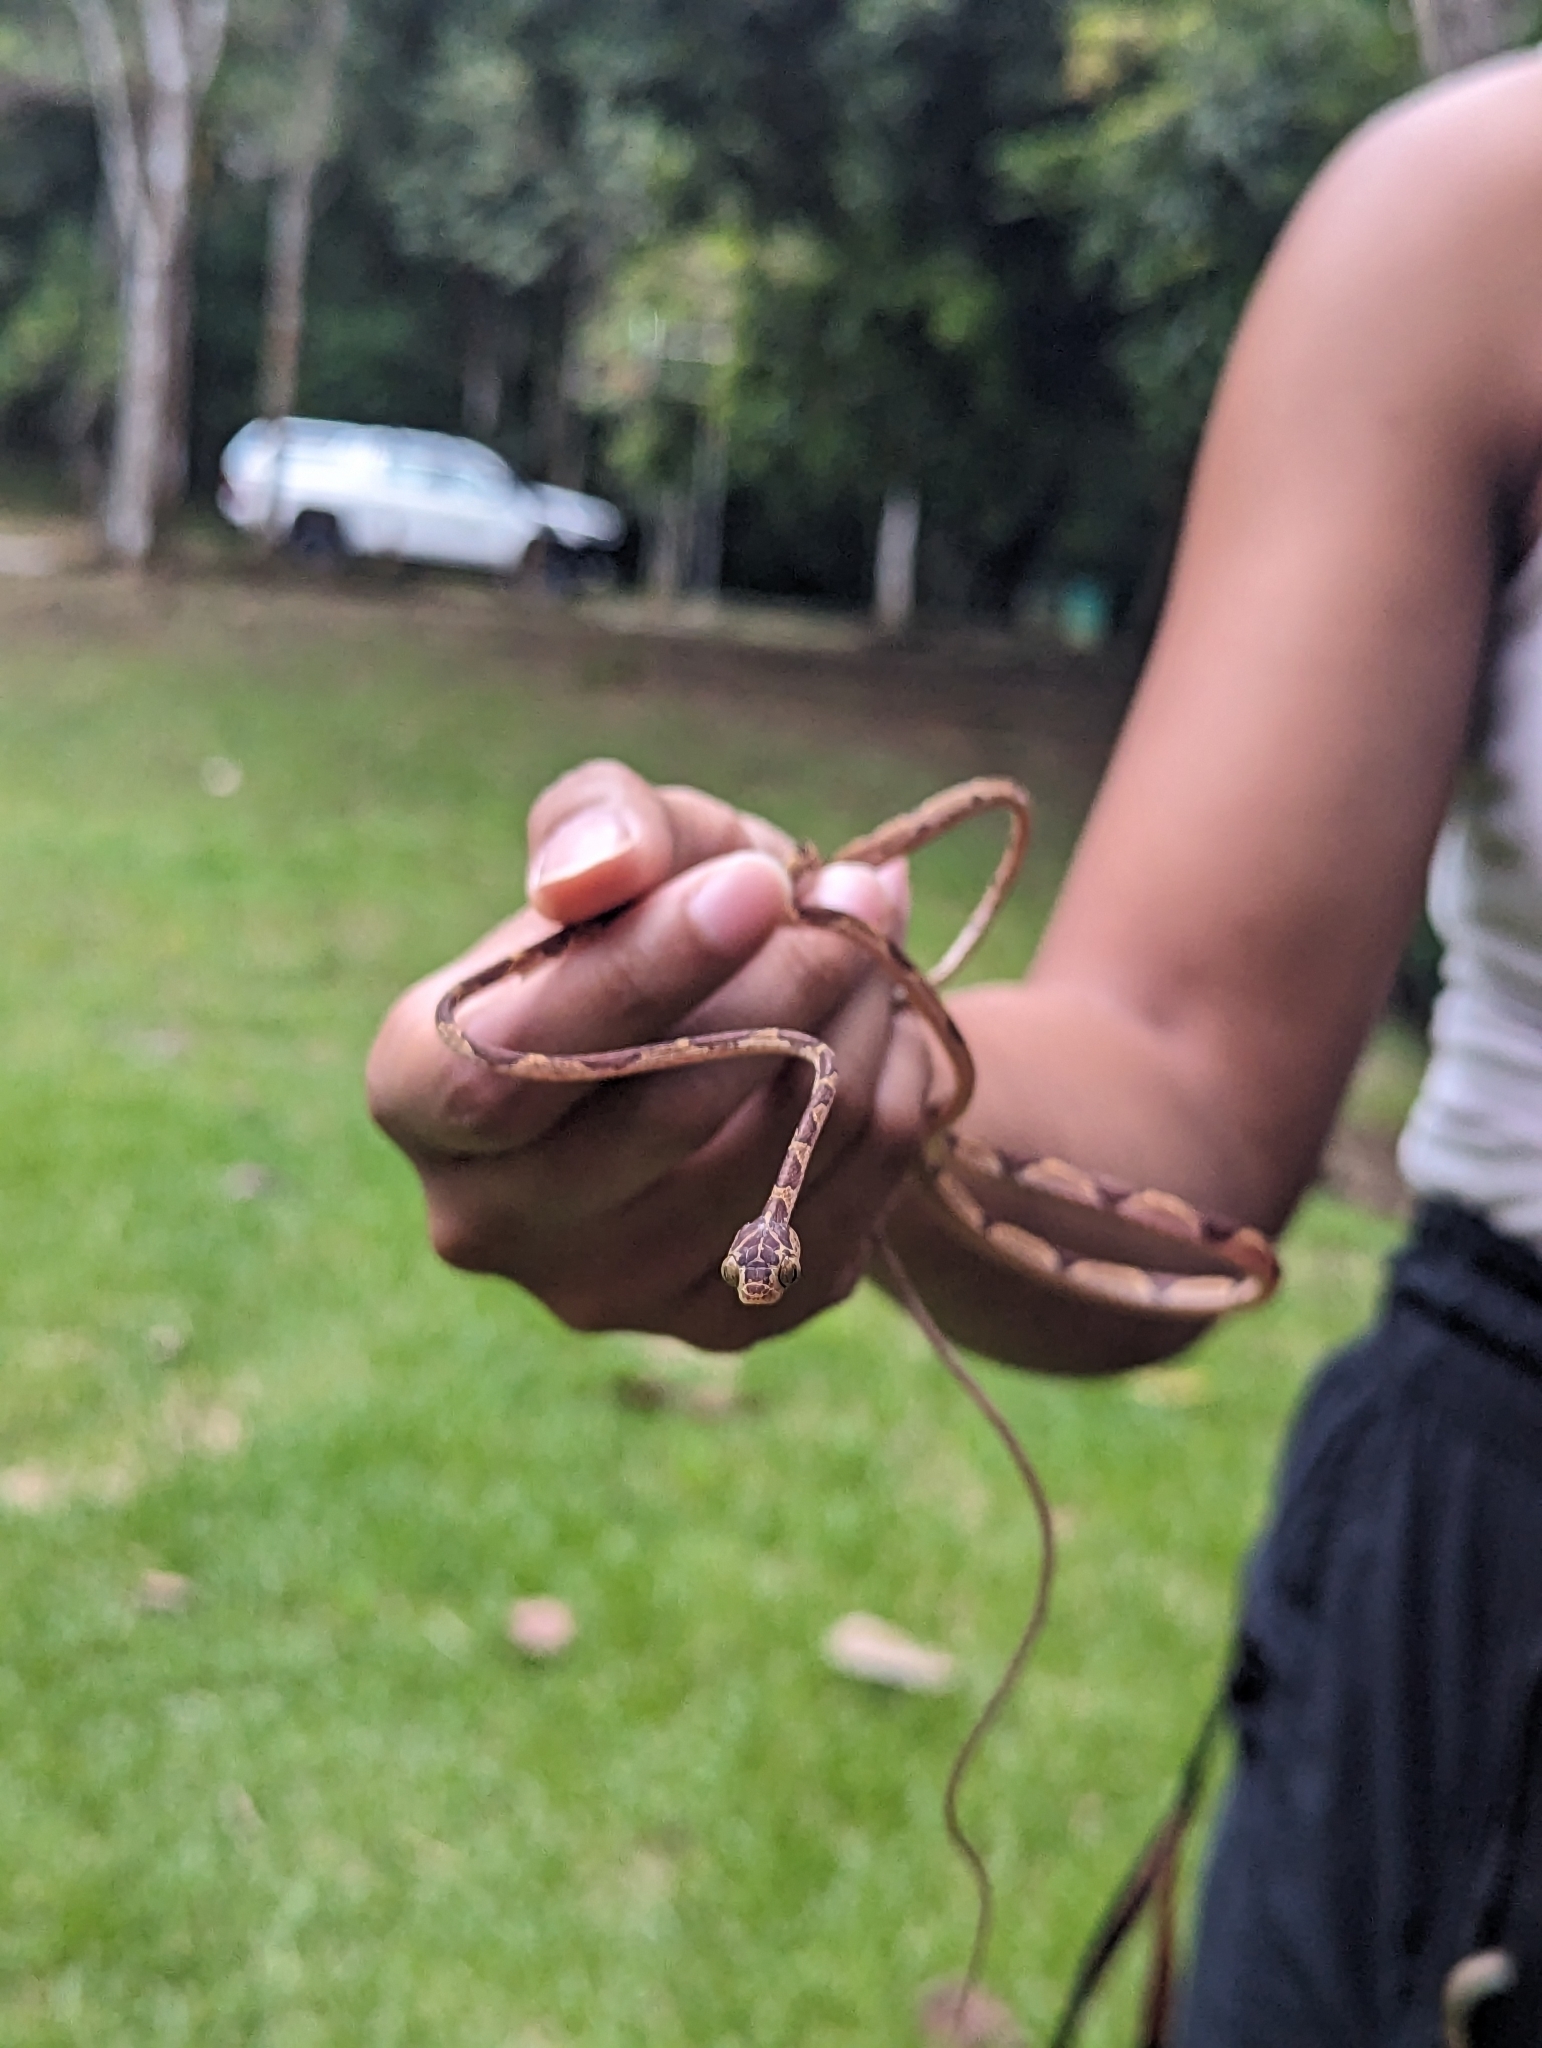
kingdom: Animalia
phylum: Chordata
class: Squamata
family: Colubridae
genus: Imantodes
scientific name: Imantodes cenchoa
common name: Blunthead tree snake
